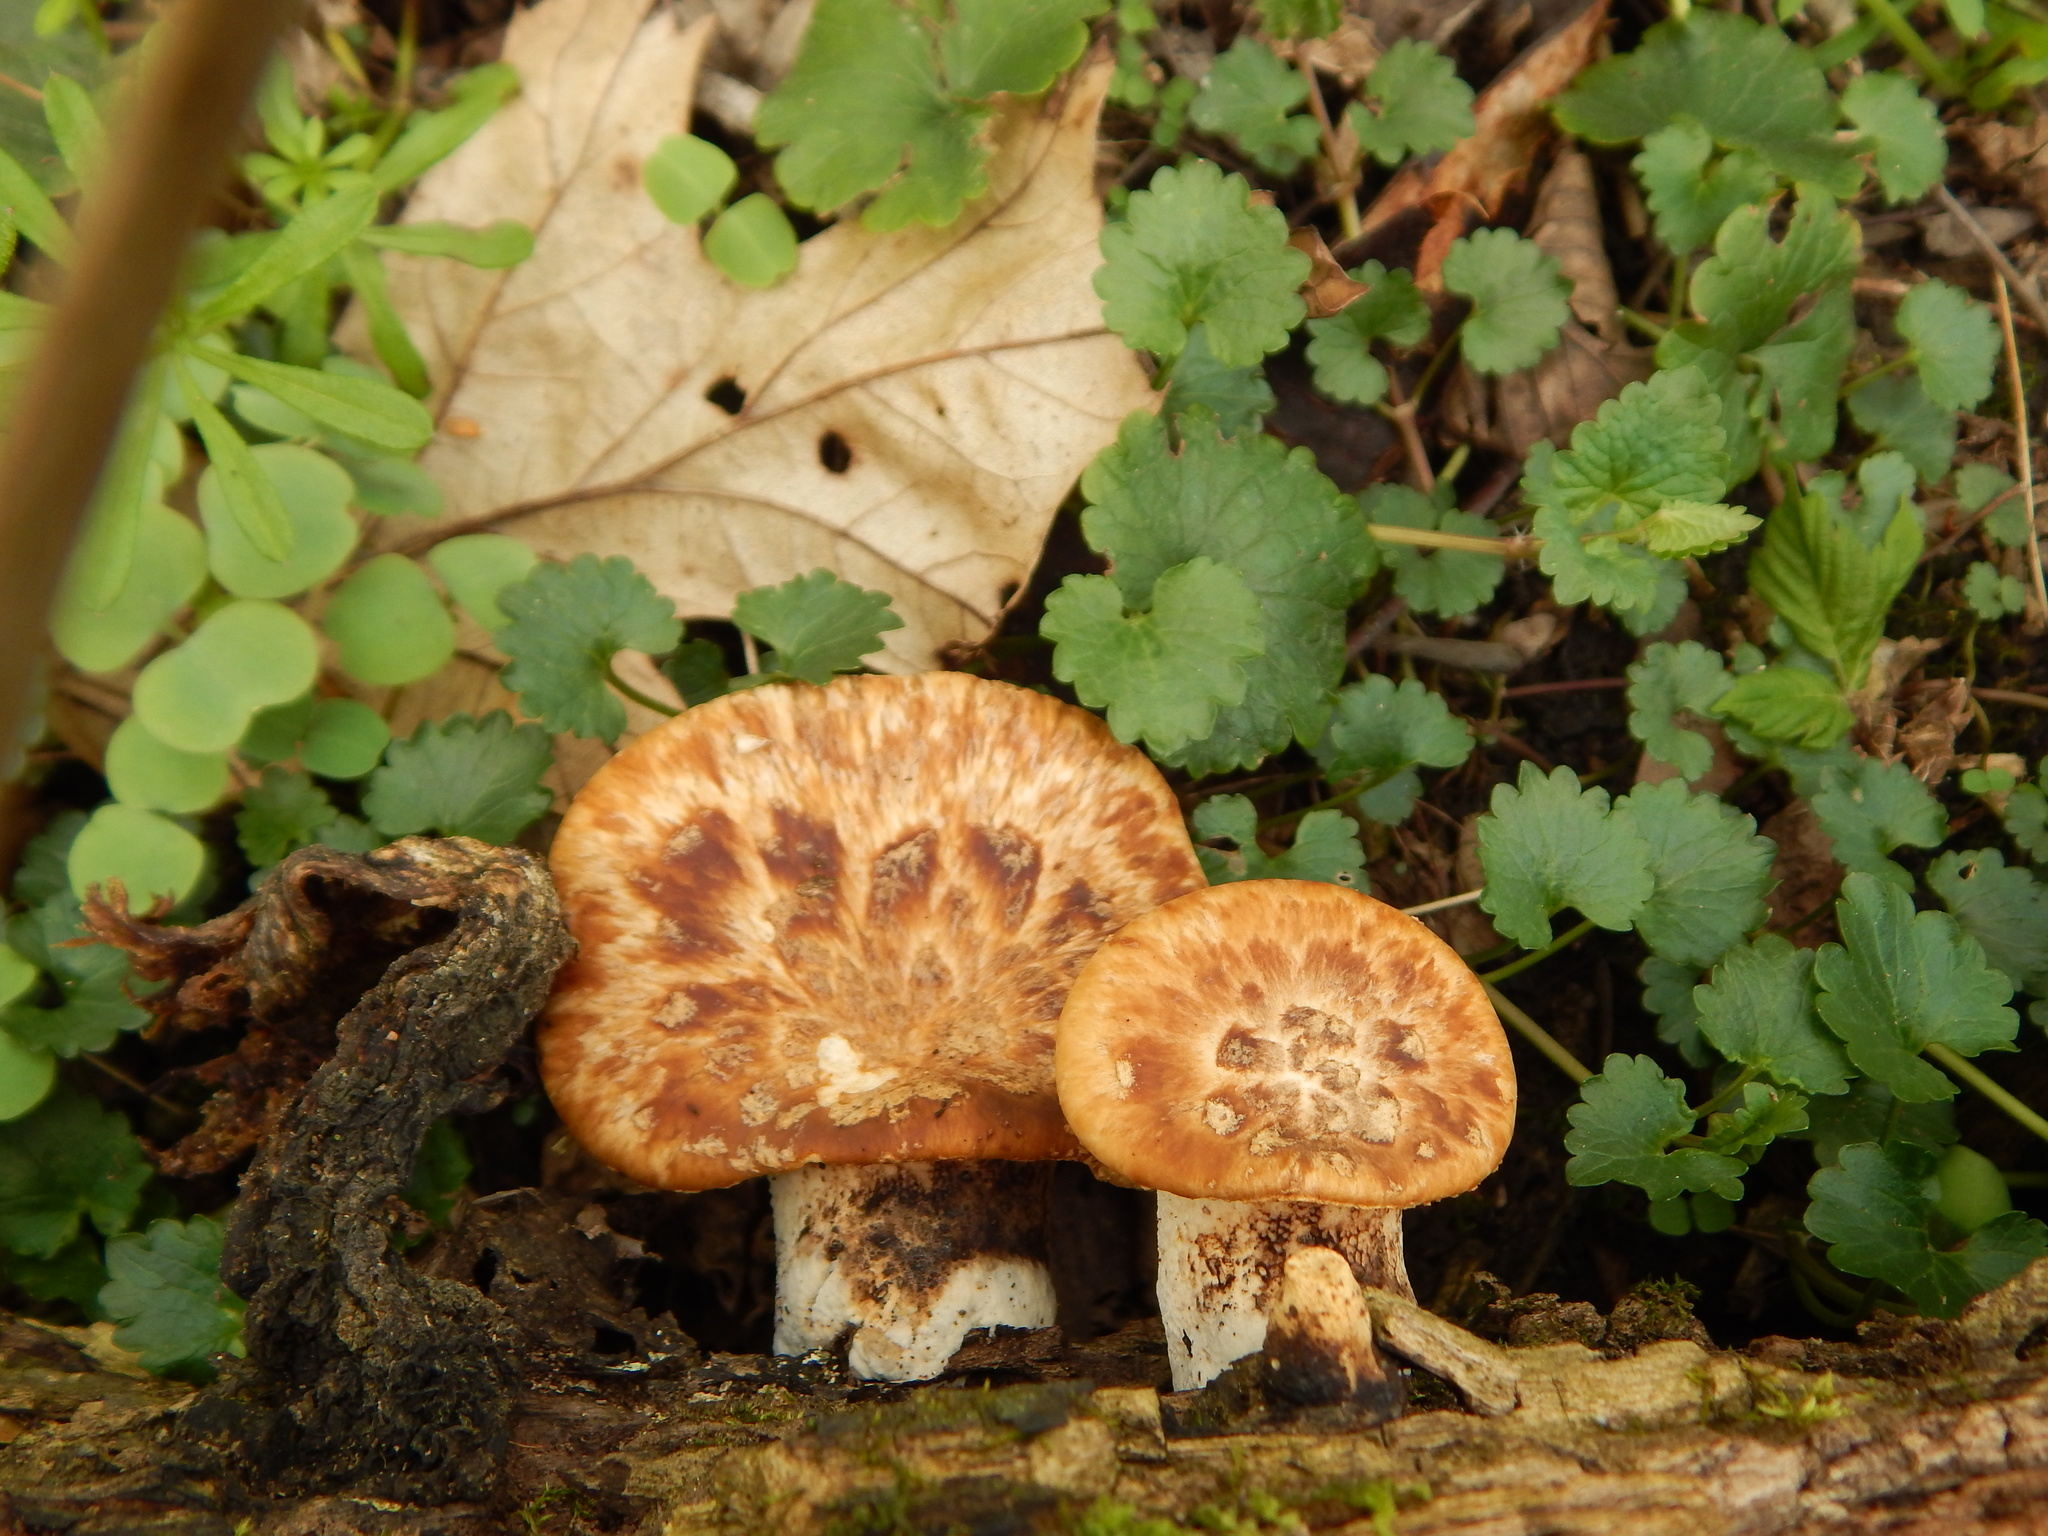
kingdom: Fungi
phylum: Basidiomycota
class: Agaricomycetes
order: Polyporales
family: Polyporaceae
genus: Cerioporus
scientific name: Cerioporus squamosus
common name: Dryad's saddle
